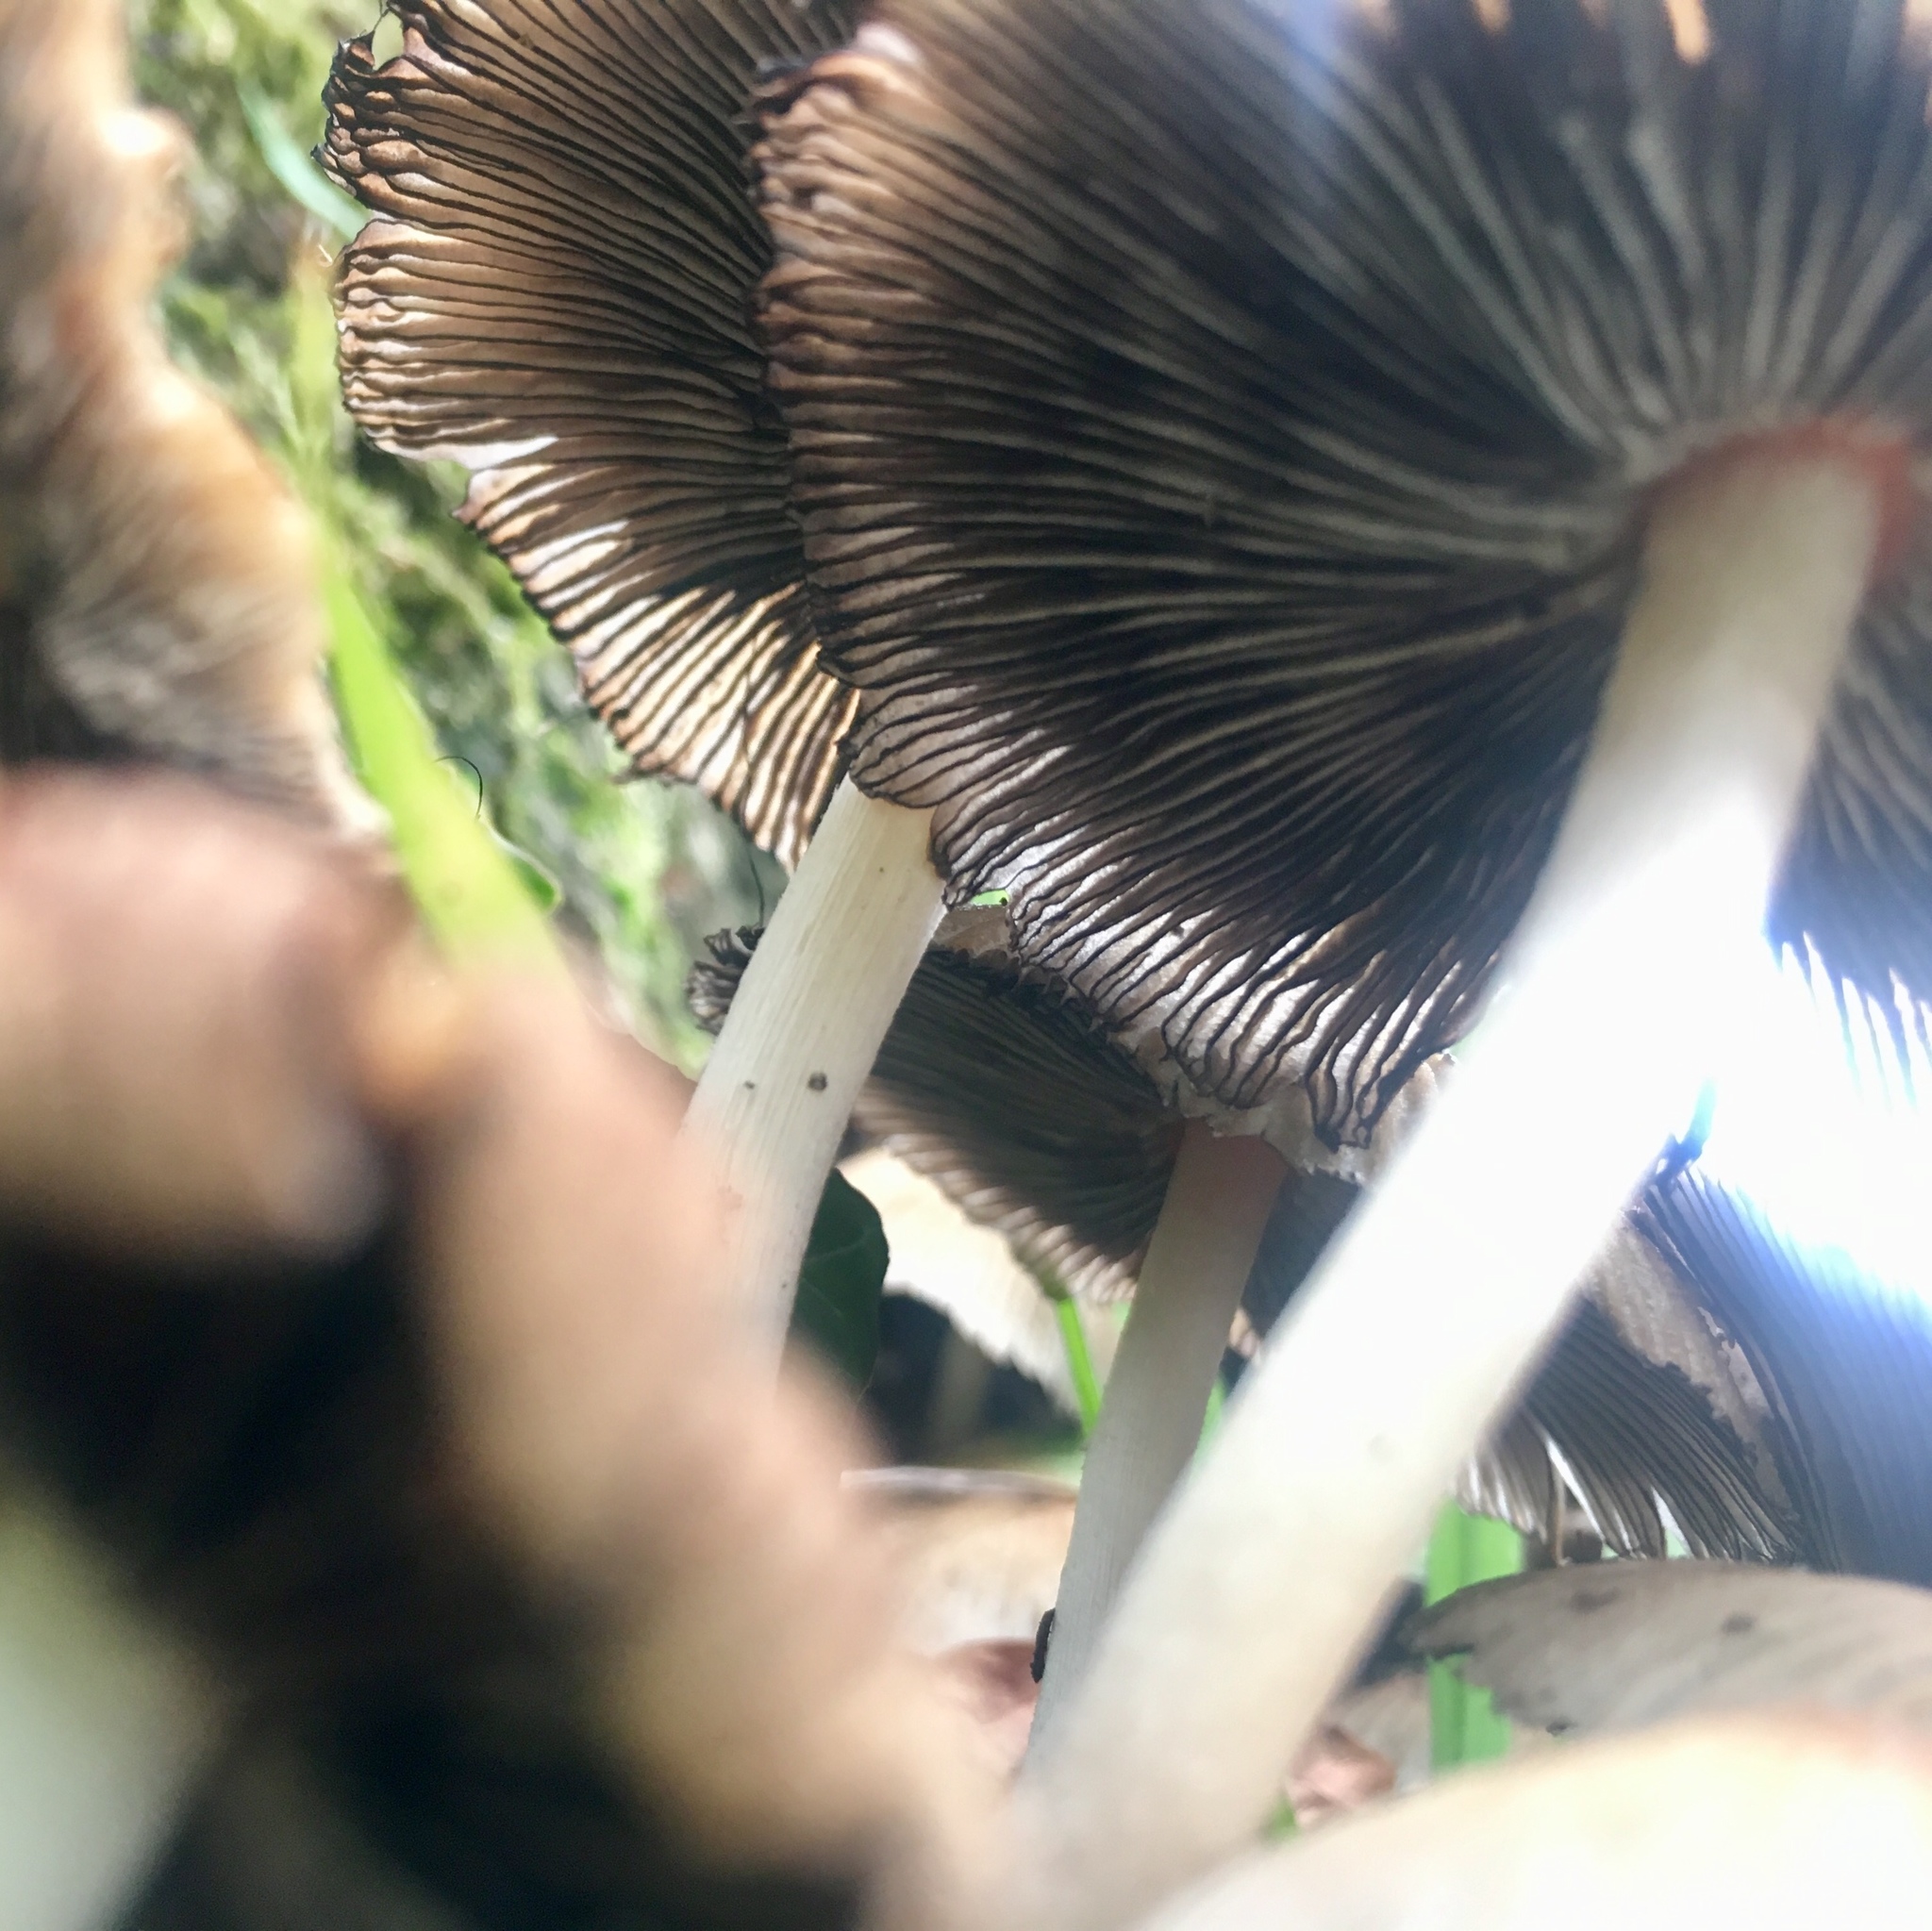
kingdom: Fungi
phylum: Basidiomycota
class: Agaricomycetes
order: Agaricales
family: Psathyrellaceae
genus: Coprinellus
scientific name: Coprinellus micaceus
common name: Glistening ink-cap
